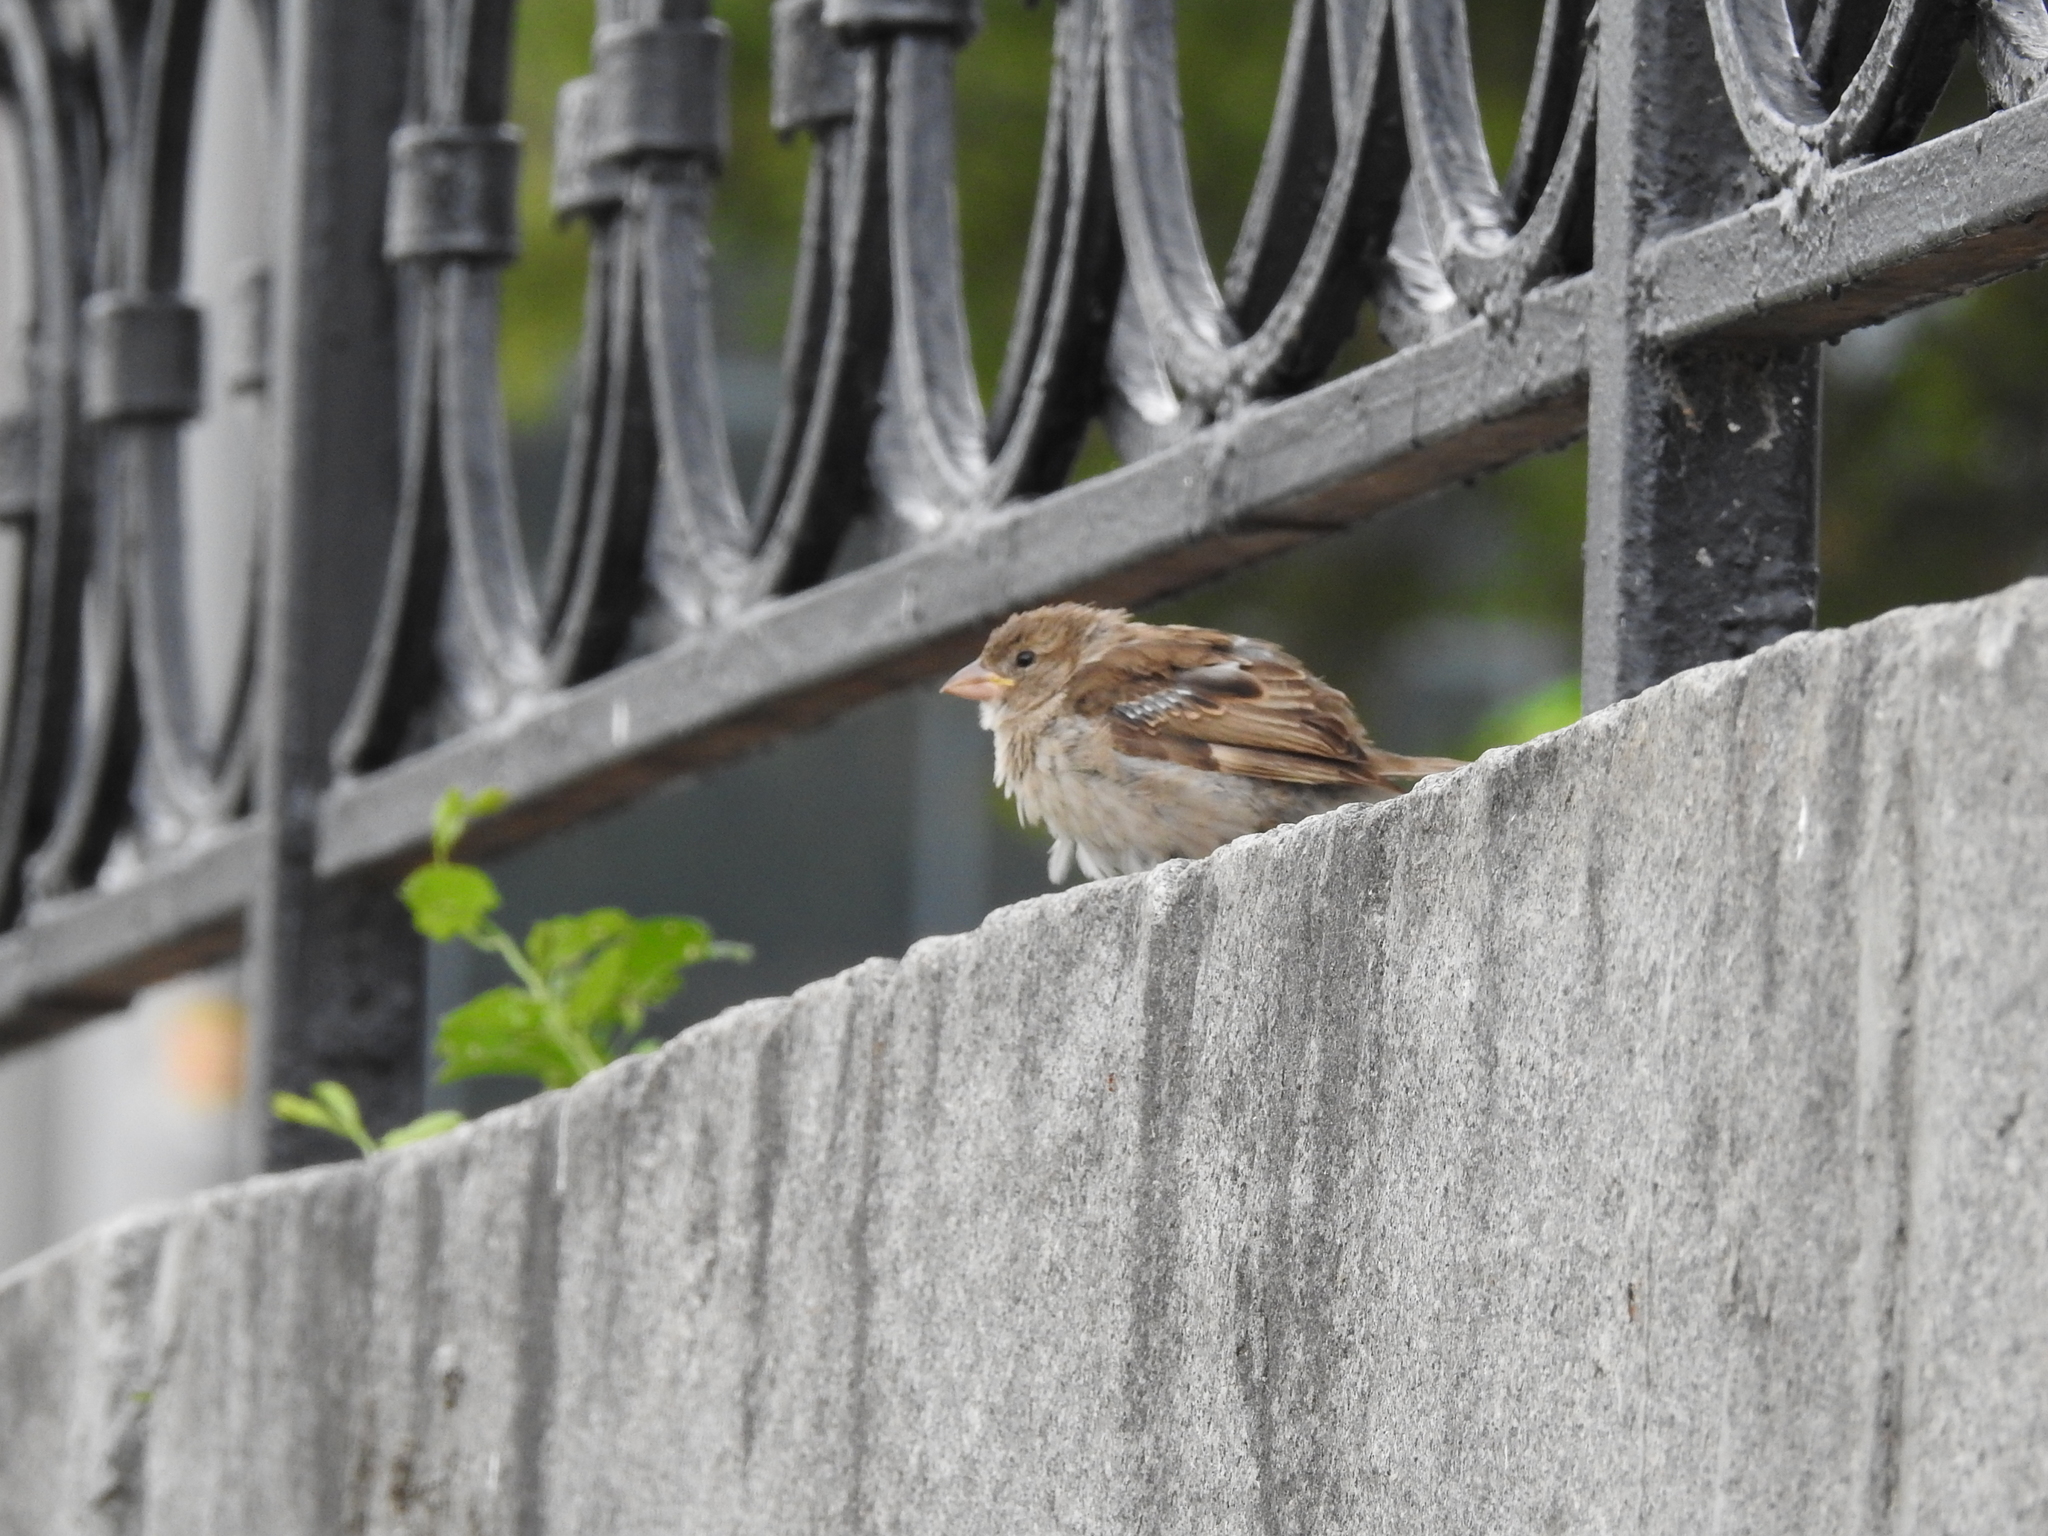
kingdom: Animalia
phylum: Chordata
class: Aves
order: Passeriformes
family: Passeridae
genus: Passer
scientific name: Passer domesticus
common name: House sparrow
